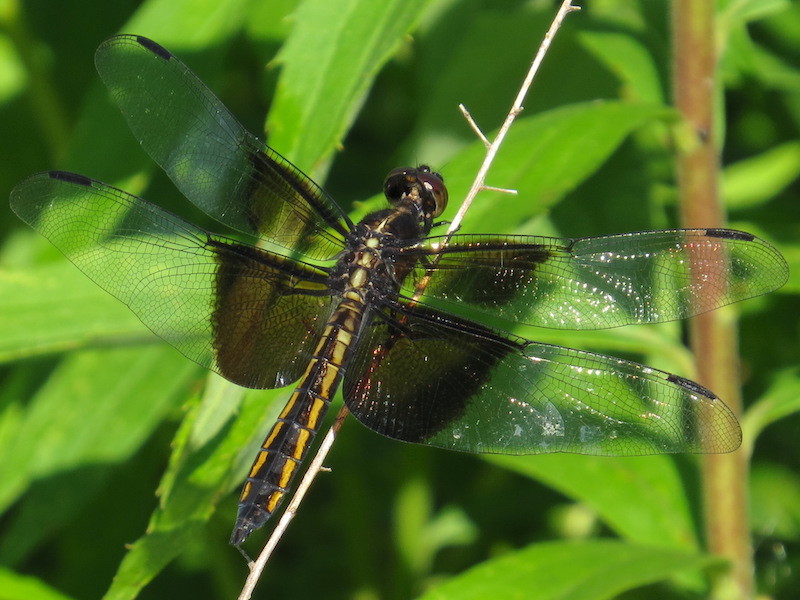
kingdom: Animalia
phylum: Arthropoda
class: Insecta
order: Odonata
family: Libellulidae
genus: Libellula
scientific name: Libellula luctuosa
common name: Widow skimmer
